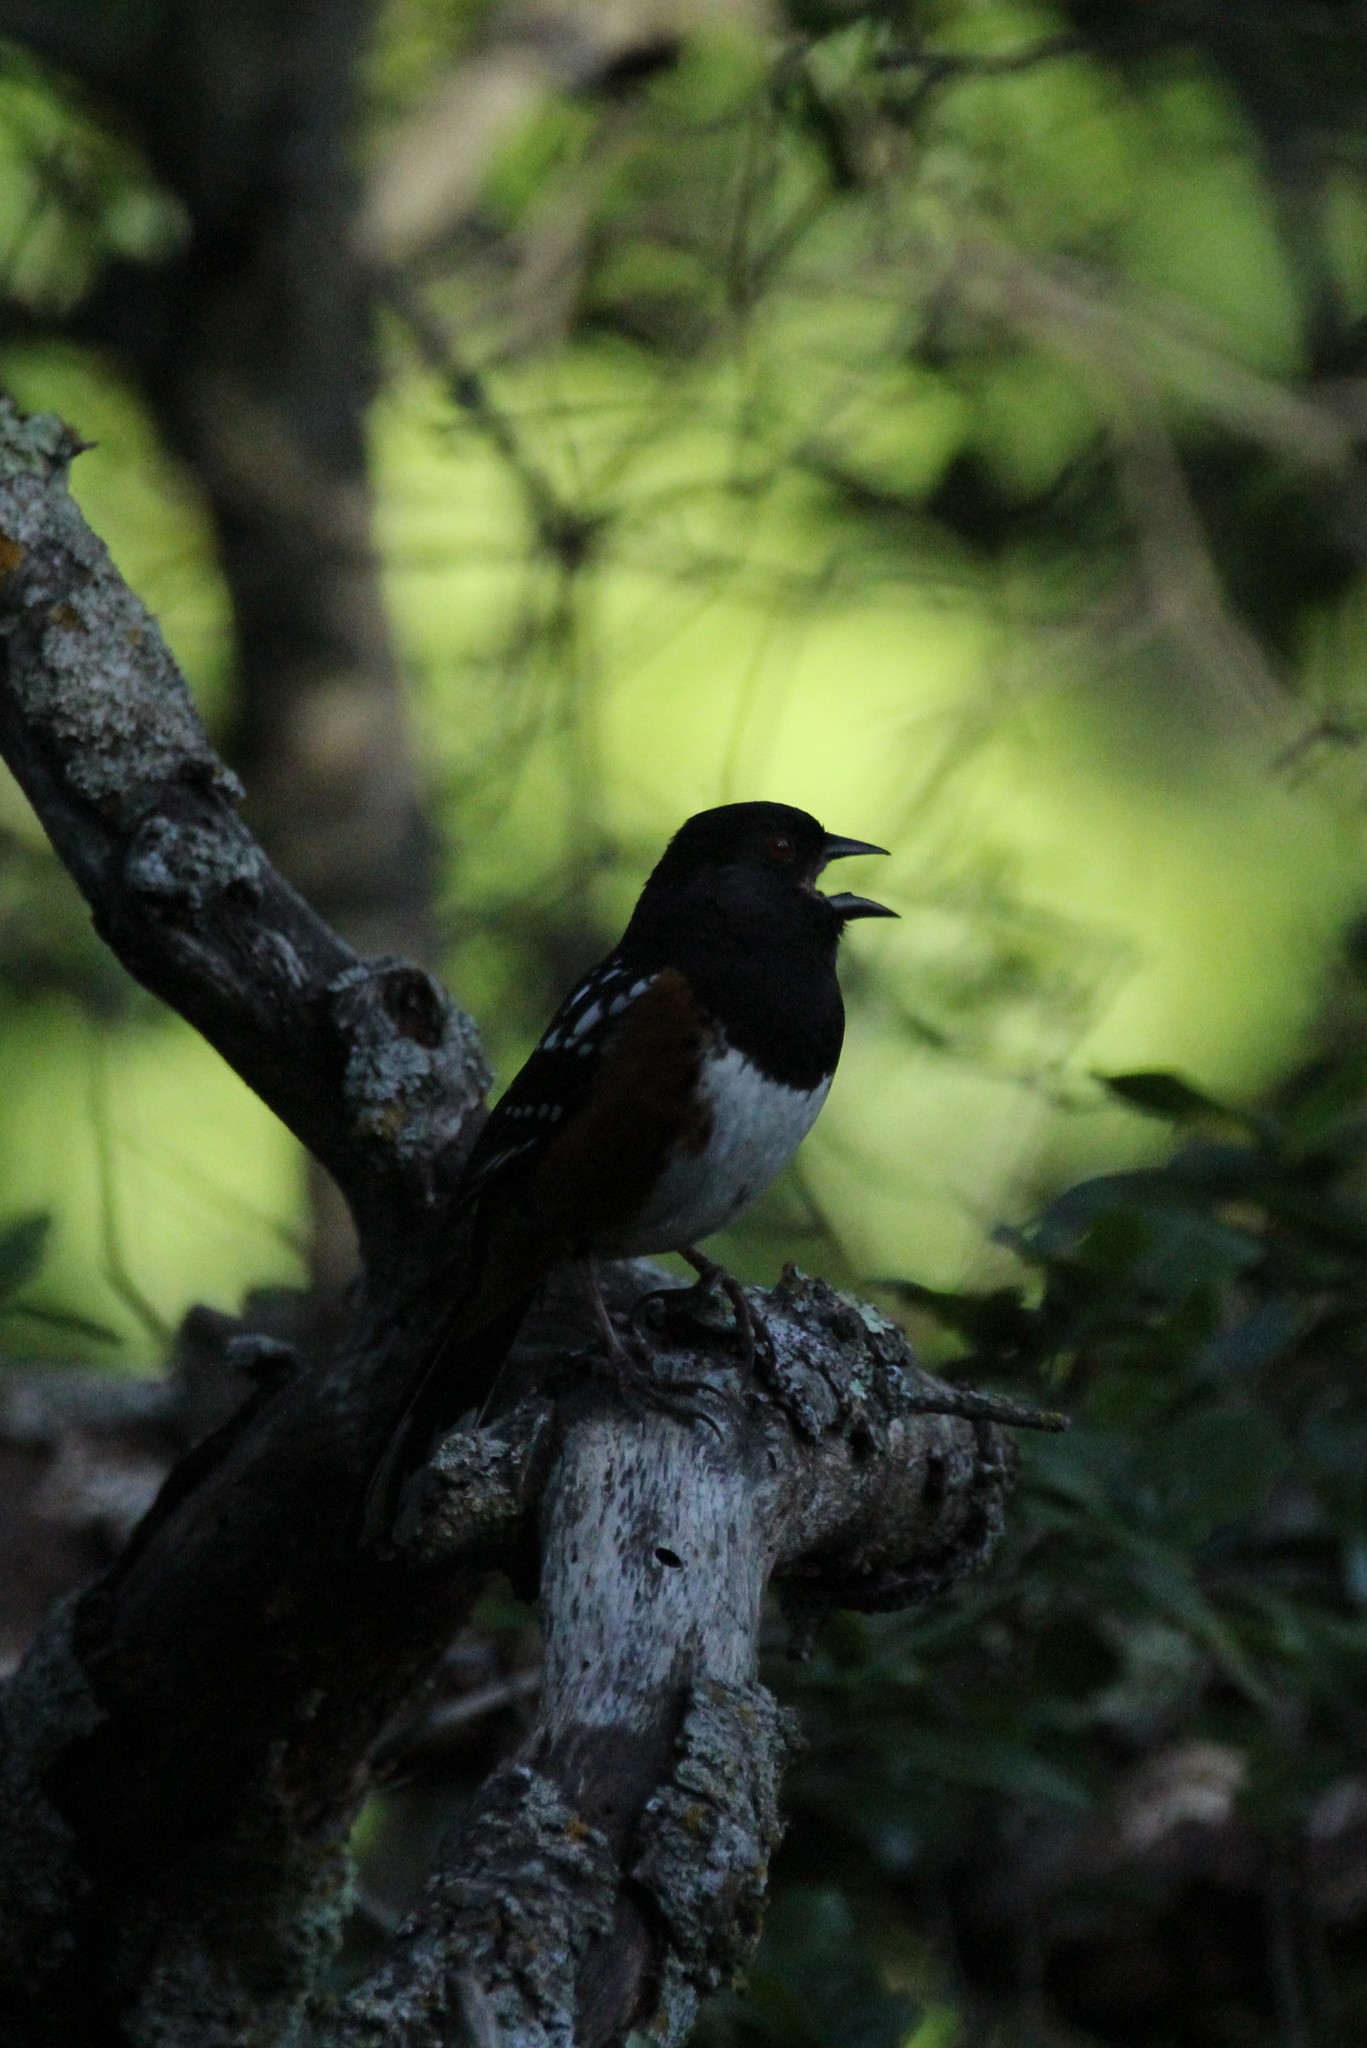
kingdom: Animalia
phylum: Chordata
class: Aves
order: Passeriformes
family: Passerellidae
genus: Pipilo
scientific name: Pipilo maculatus
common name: Spotted towhee
